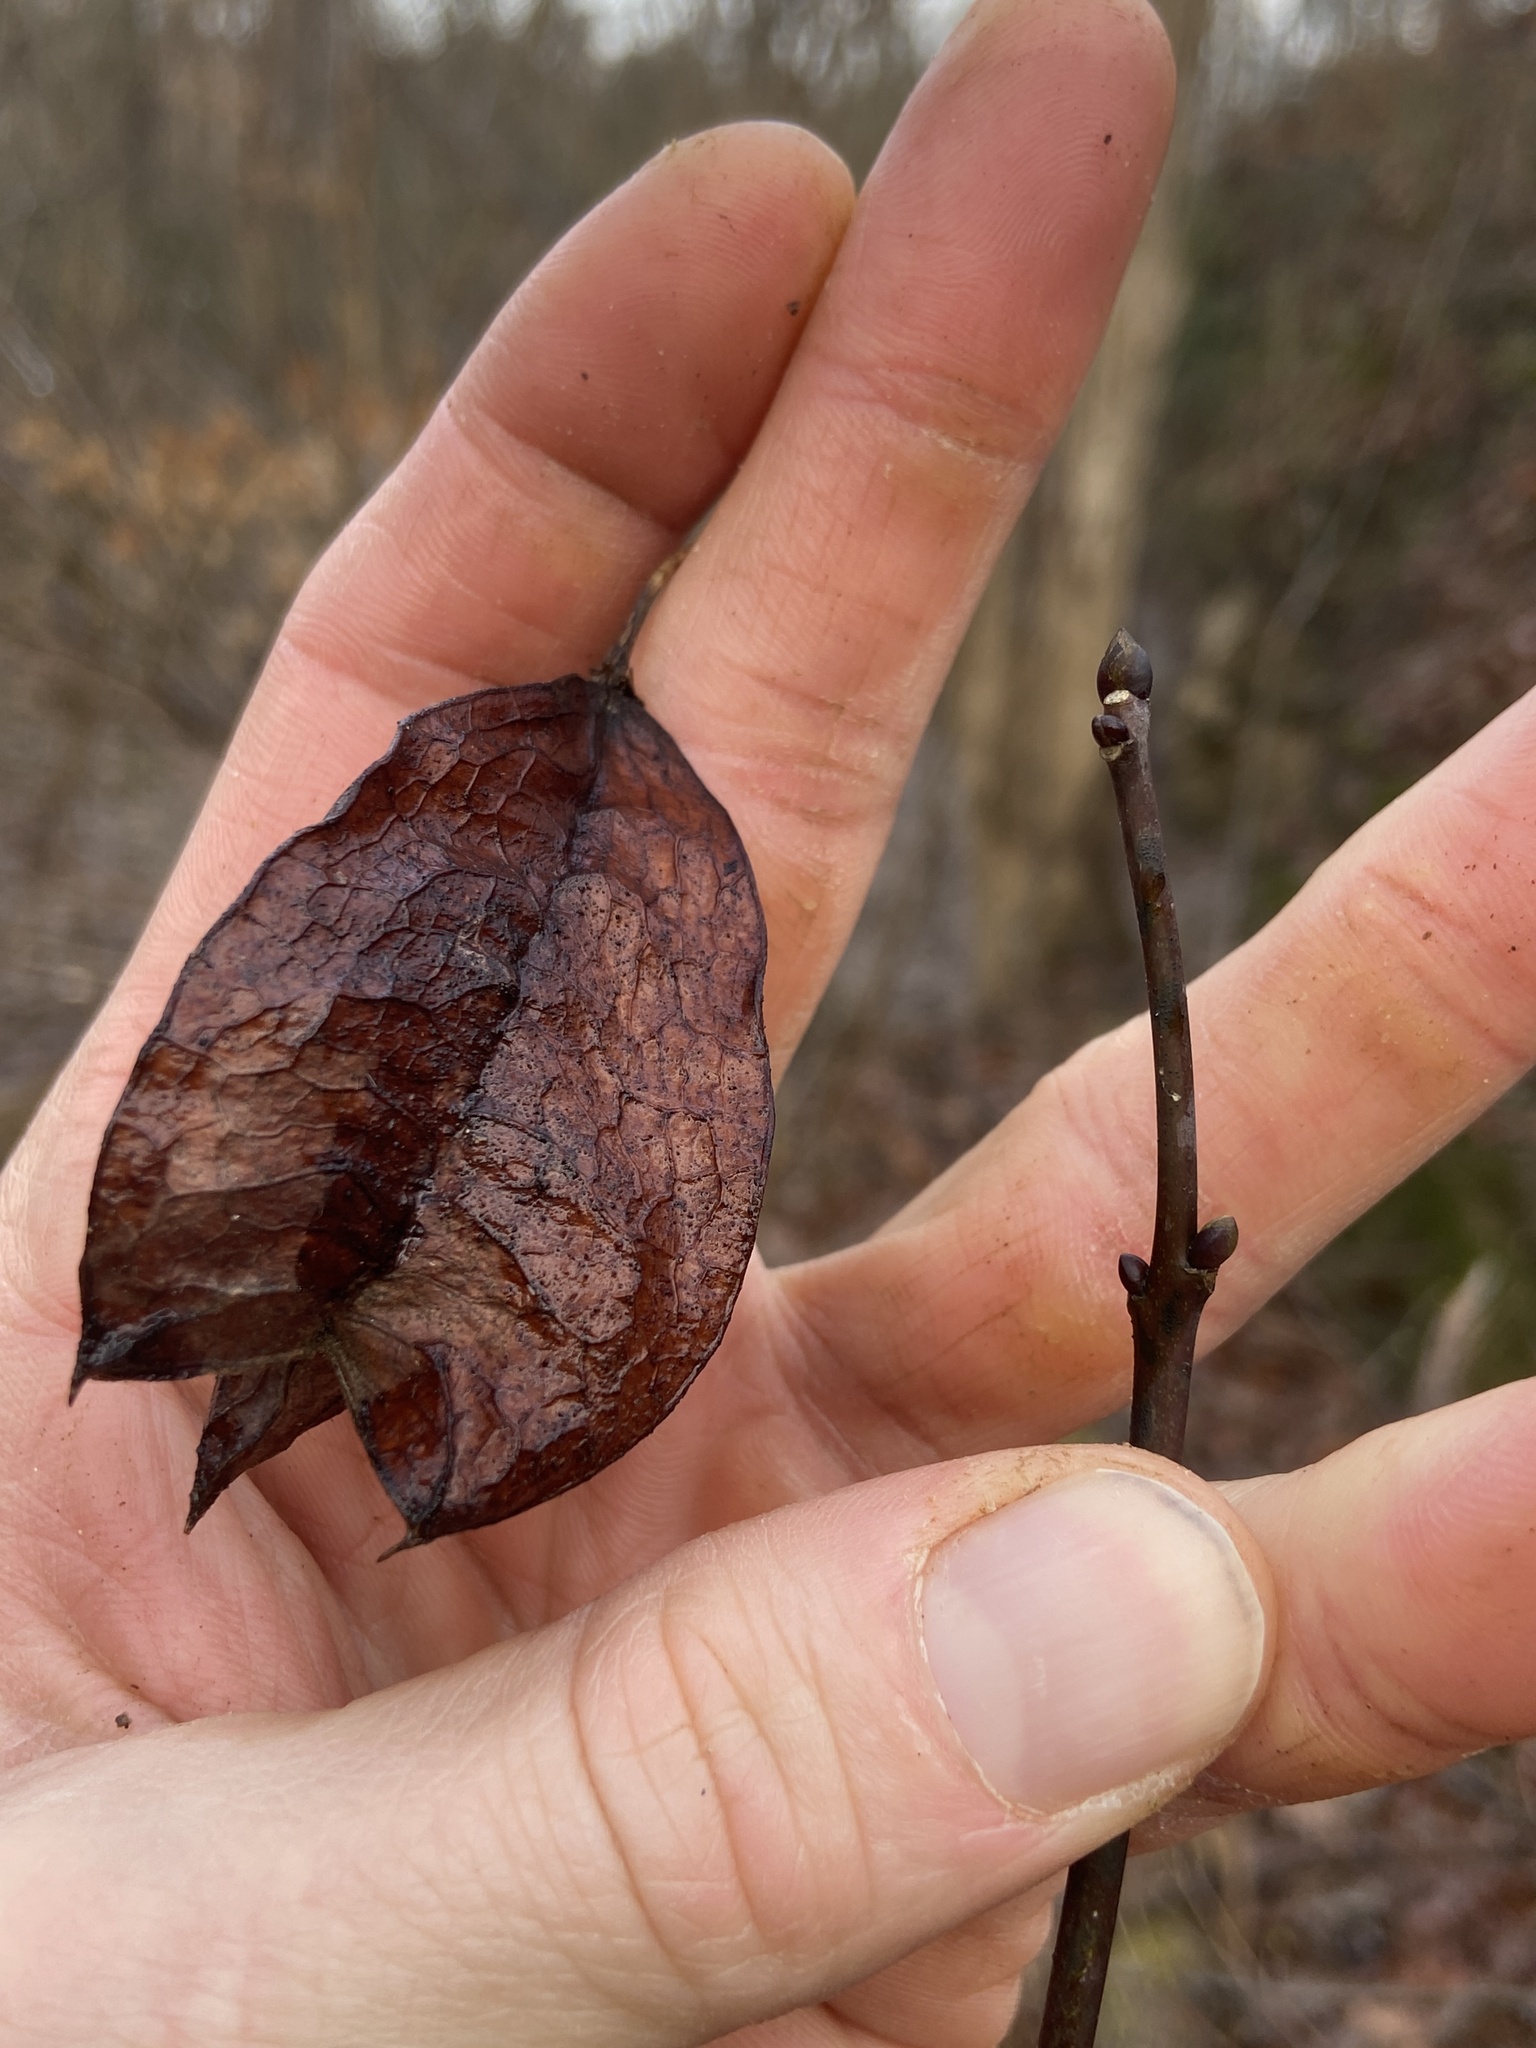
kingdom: Plantae
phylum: Tracheophyta
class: Magnoliopsida
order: Crossosomatales
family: Staphyleaceae
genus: Staphylea
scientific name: Staphylea trifolia
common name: American bladdernut
